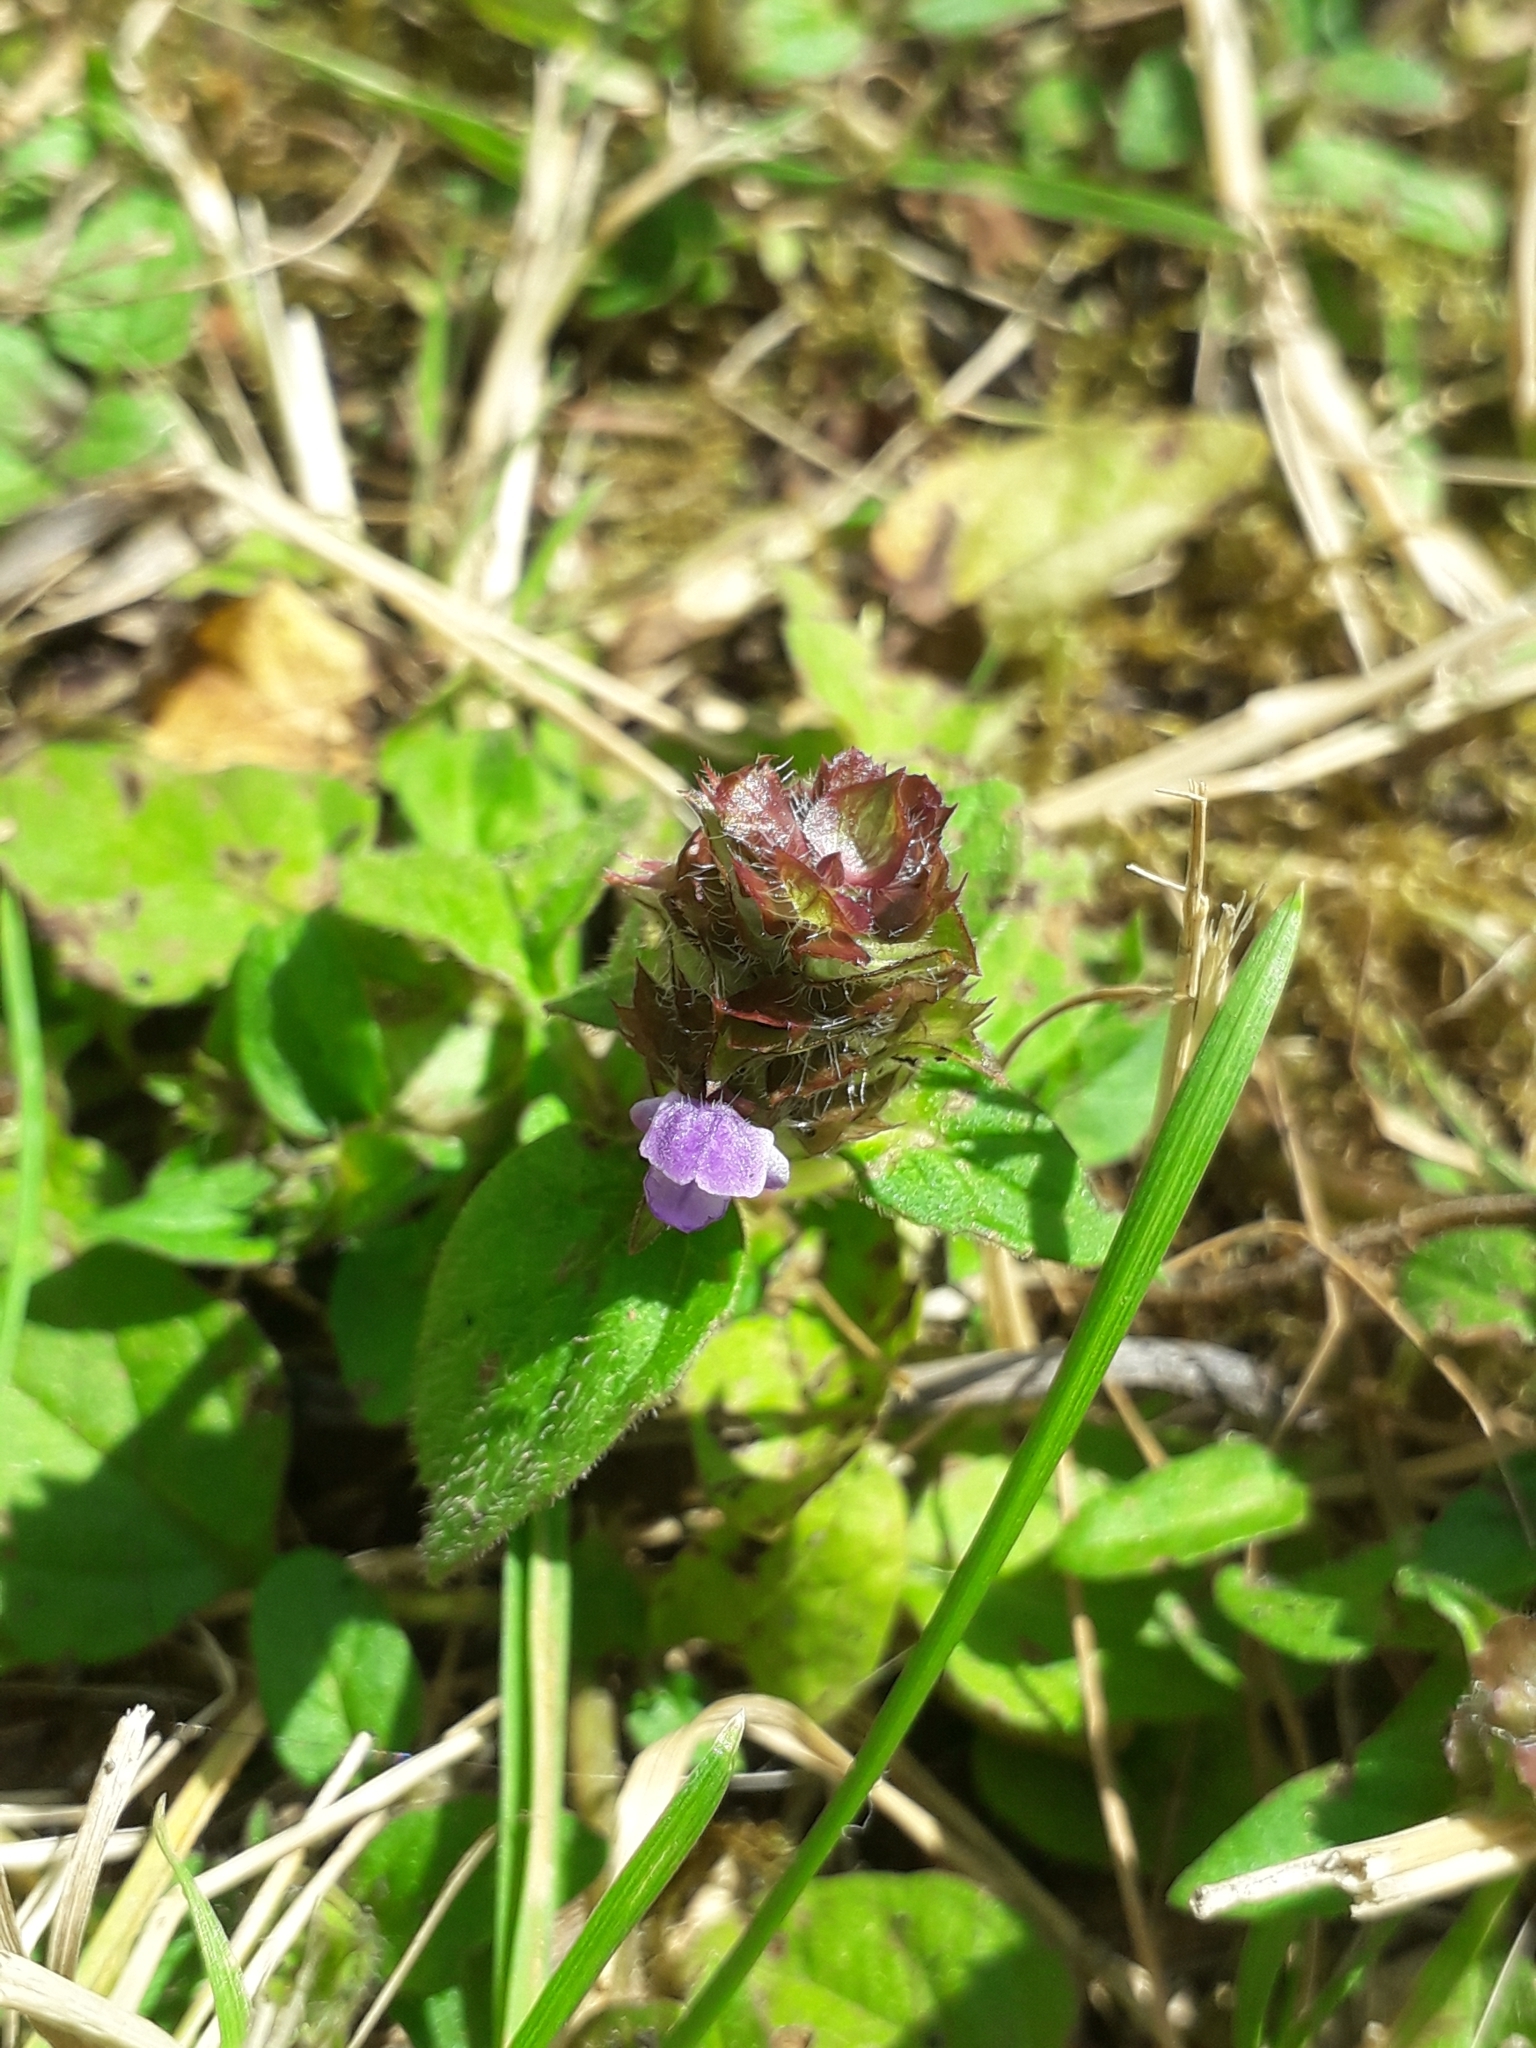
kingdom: Plantae
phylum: Tracheophyta
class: Magnoliopsida
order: Lamiales
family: Lamiaceae
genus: Ajuga
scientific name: Ajuga reptans
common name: Bugle
